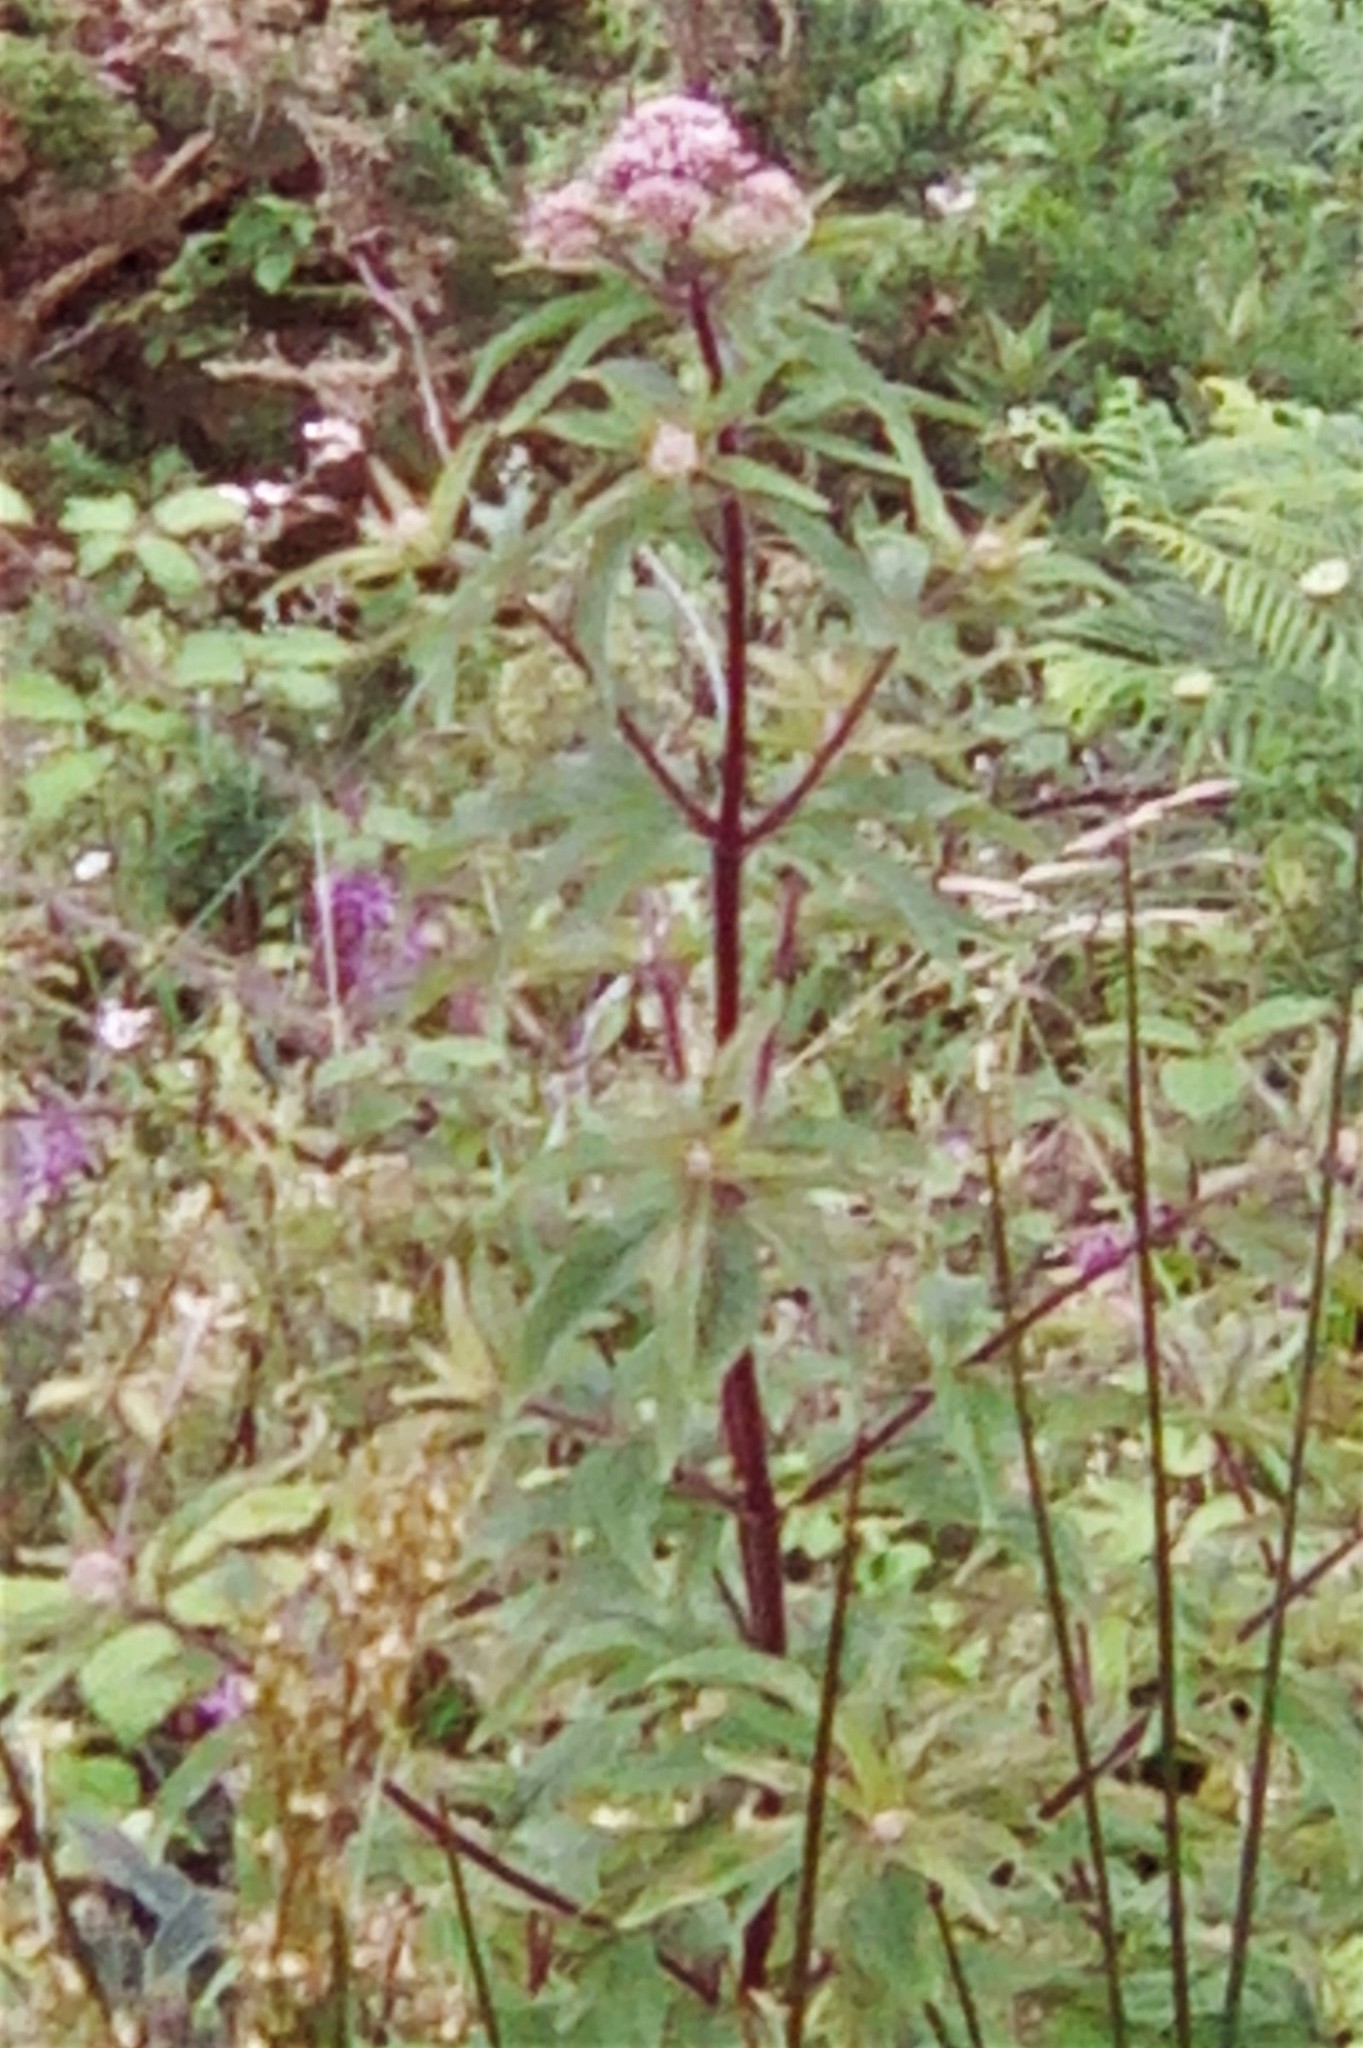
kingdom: Plantae
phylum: Tracheophyta
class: Magnoliopsida
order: Asterales
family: Asteraceae
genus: Eupatorium
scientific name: Eupatorium cannabinum
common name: Hemp-agrimony
